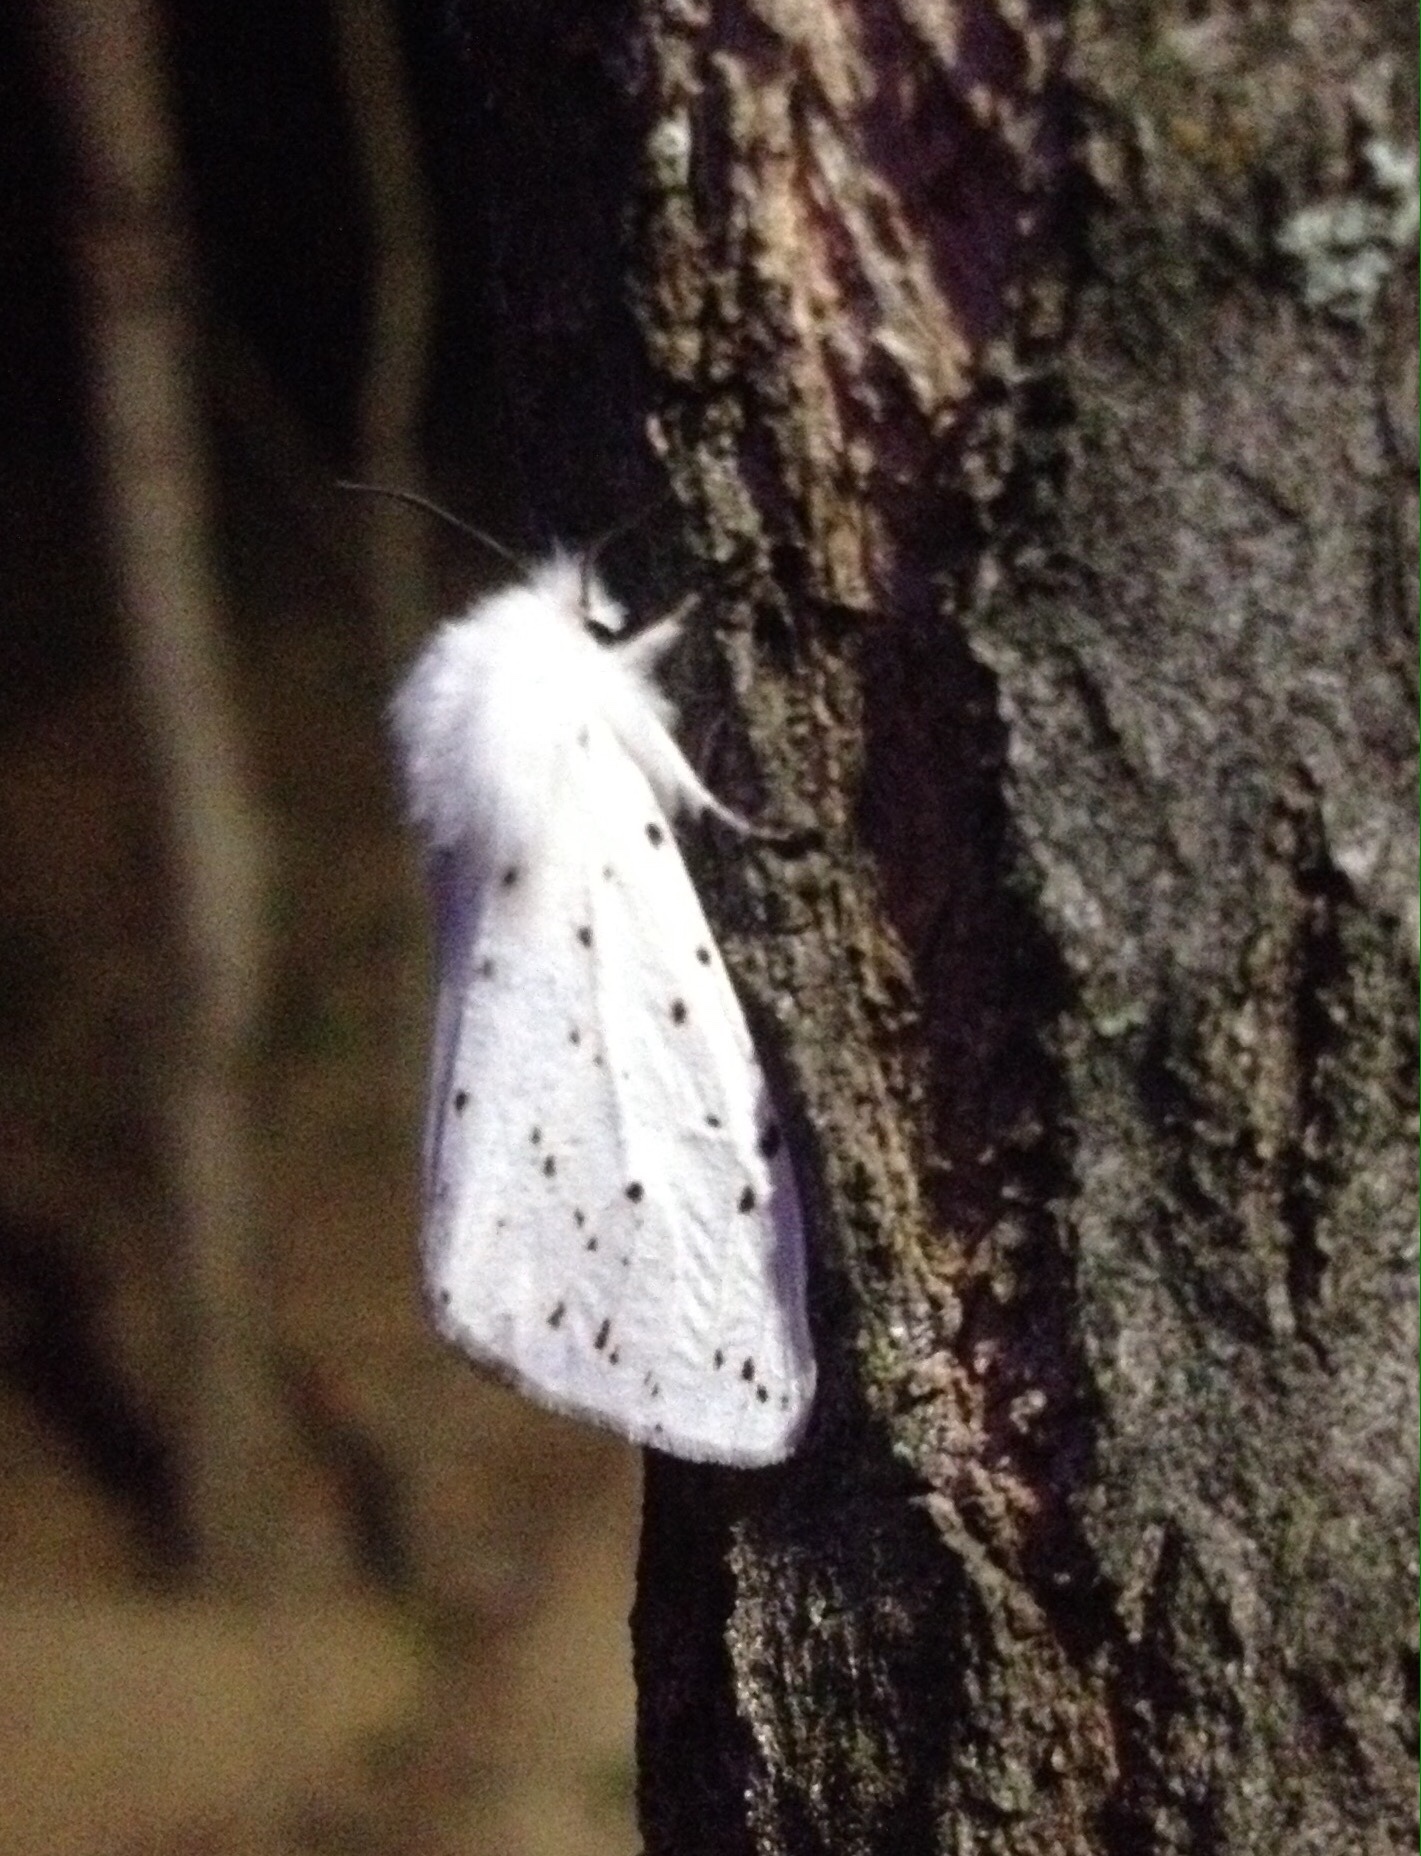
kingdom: Animalia
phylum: Arthropoda
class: Insecta
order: Lepidoptera
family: Erebidae
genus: Spilosoma
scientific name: Spilosoma lubricipeda
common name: White ermine
